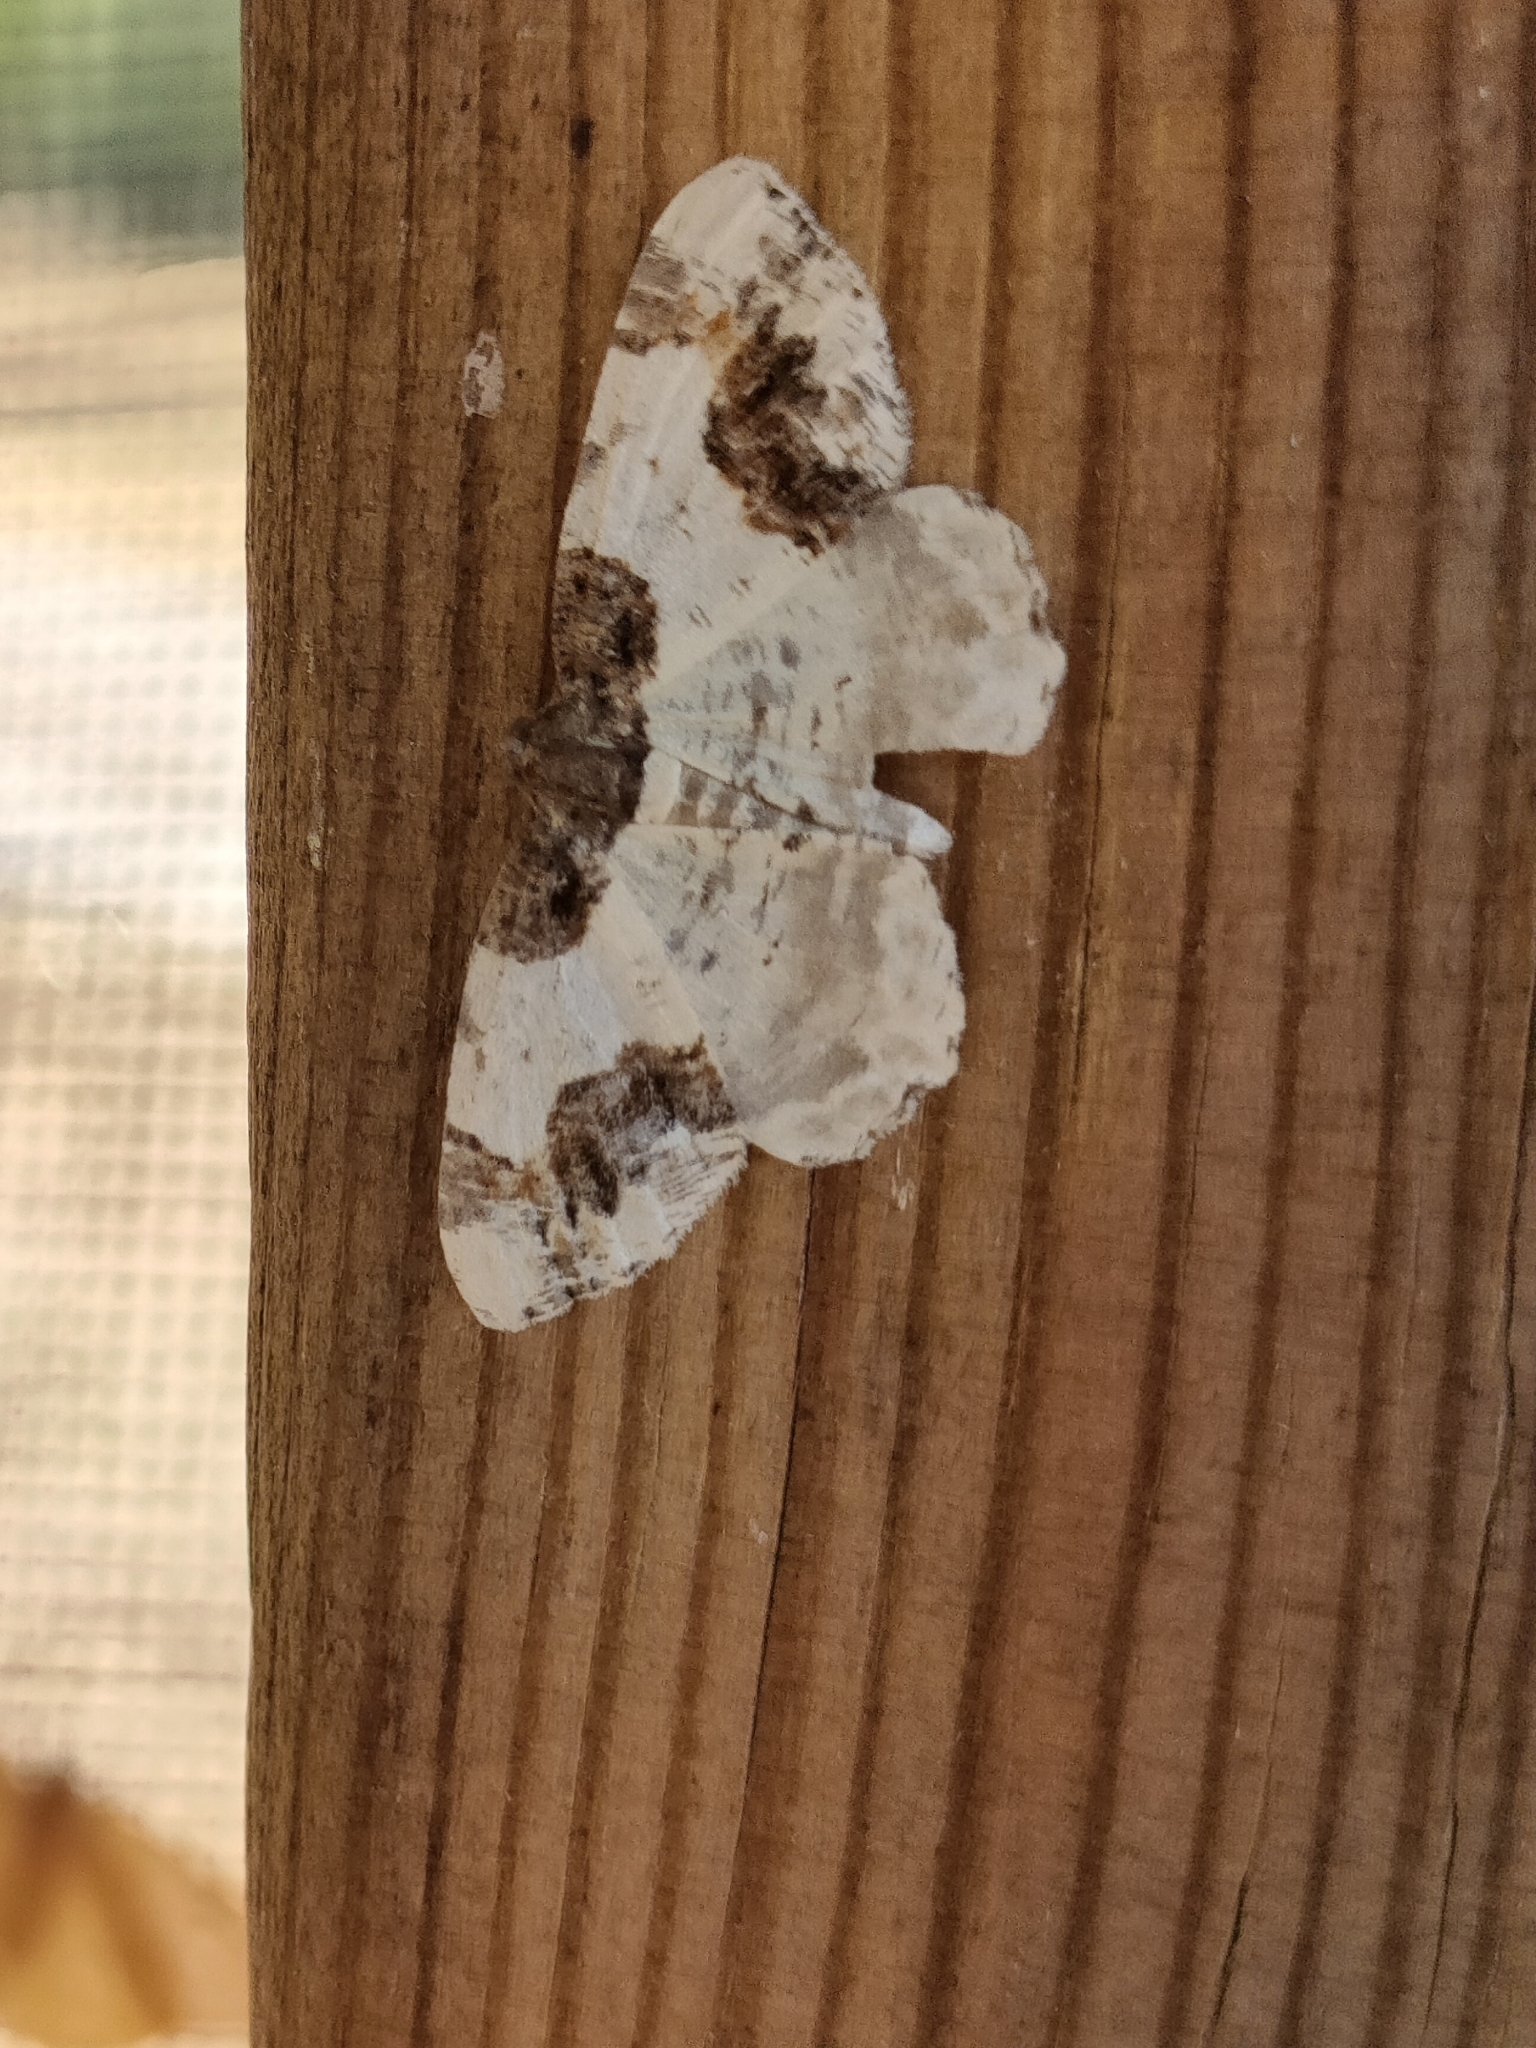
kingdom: Animalia
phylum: Arthropoda
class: Insecta
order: Lepidoptera
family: Geometridae
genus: Ligdia
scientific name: Ligdia adustata
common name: Scorched carpet
